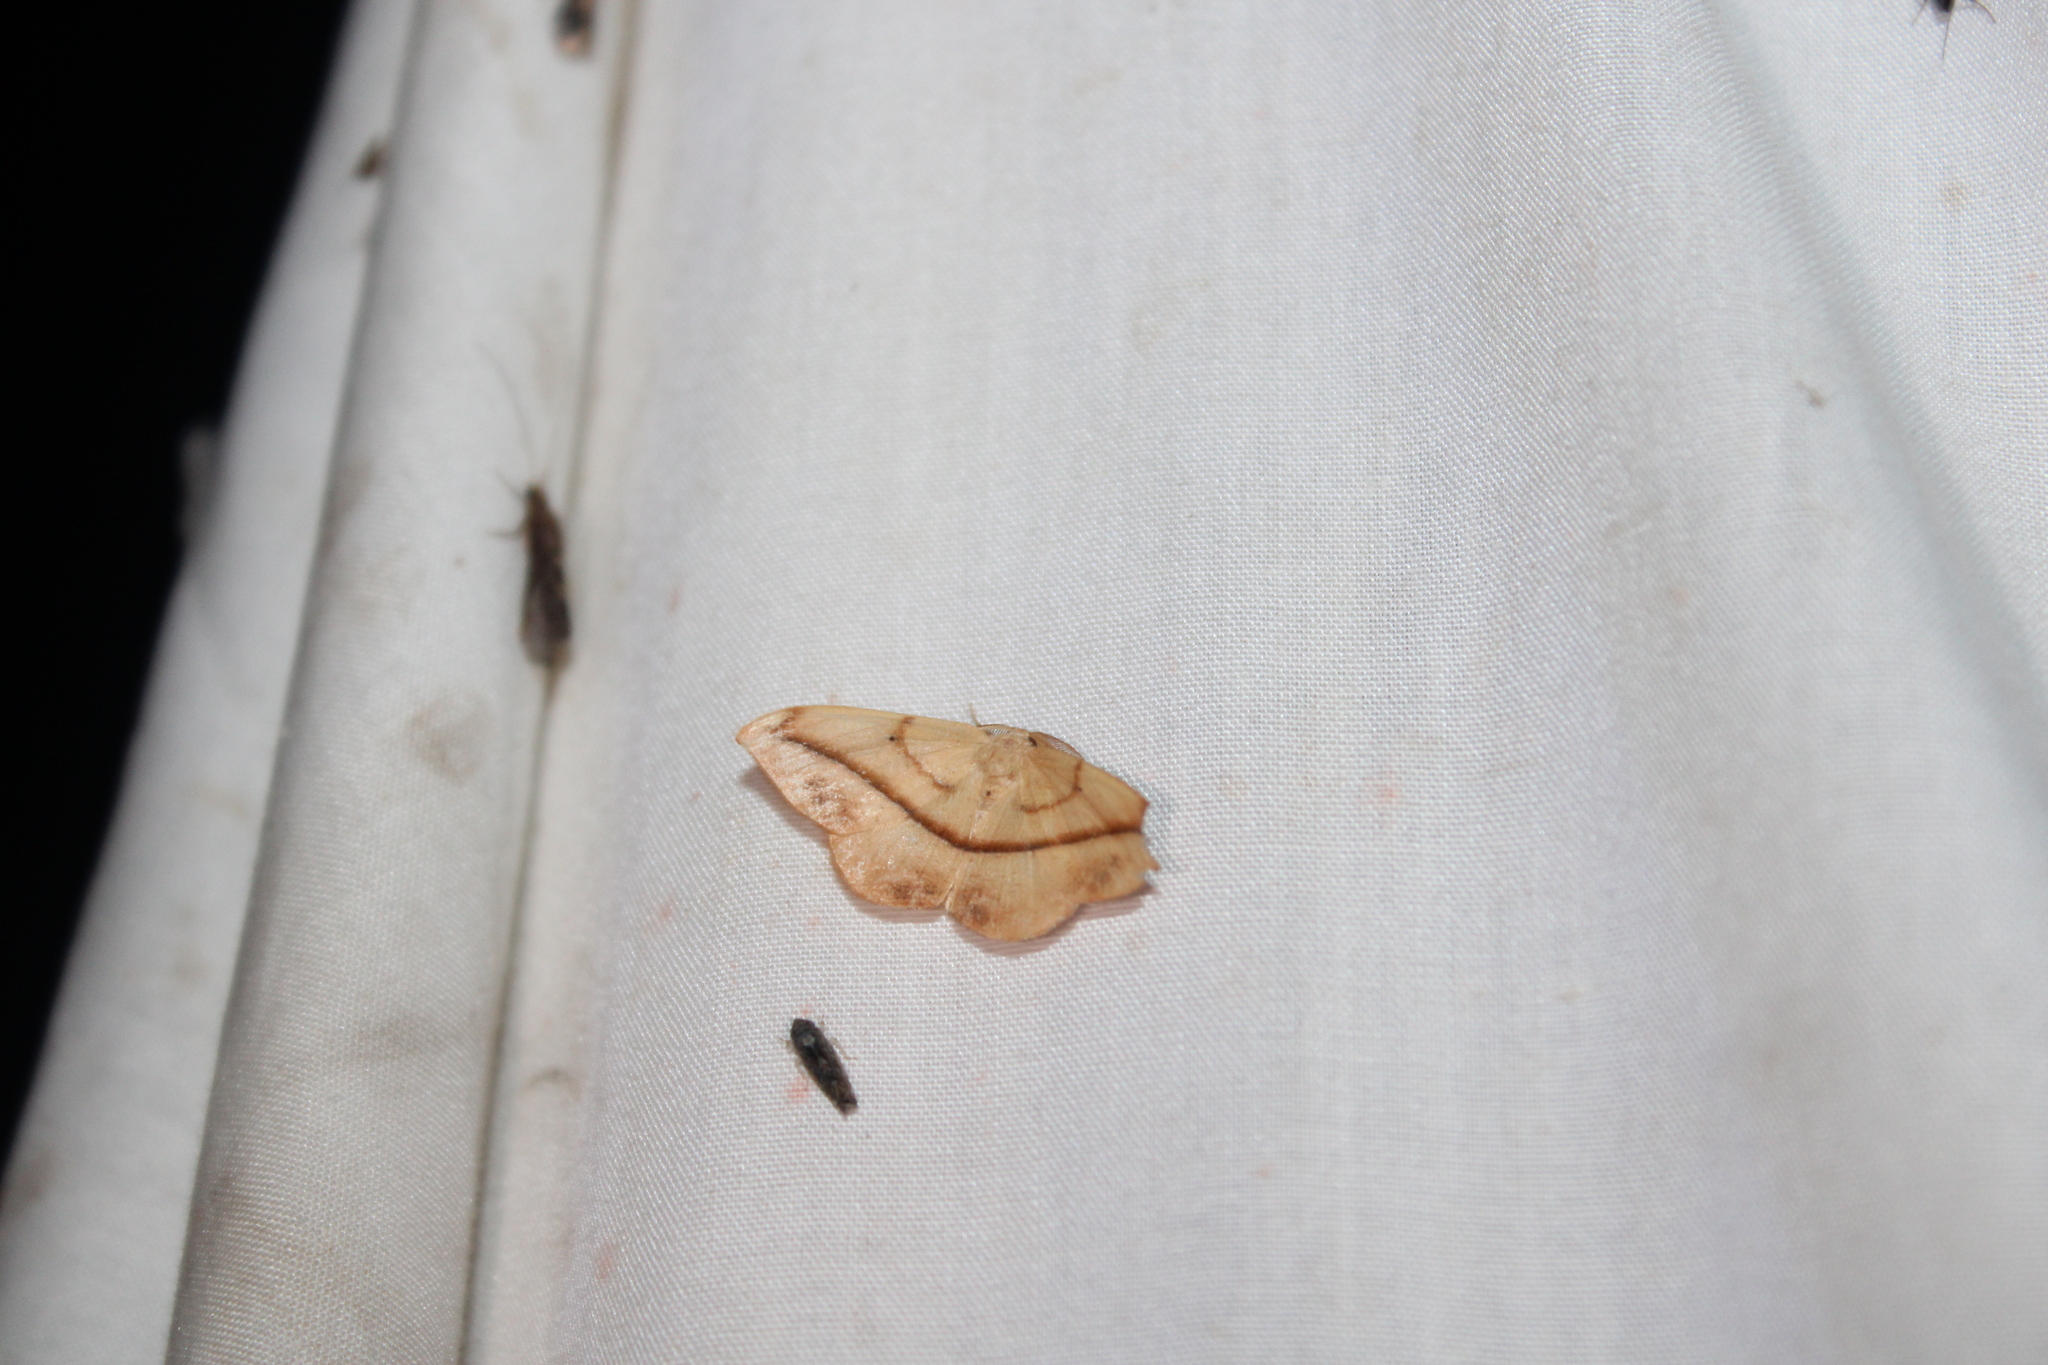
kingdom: Animalia
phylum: Arthropoda
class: Insecta
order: Lepidoptera
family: Geometridae
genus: Patalene
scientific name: Patalene olyzonaria
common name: Juniper geometer moth
